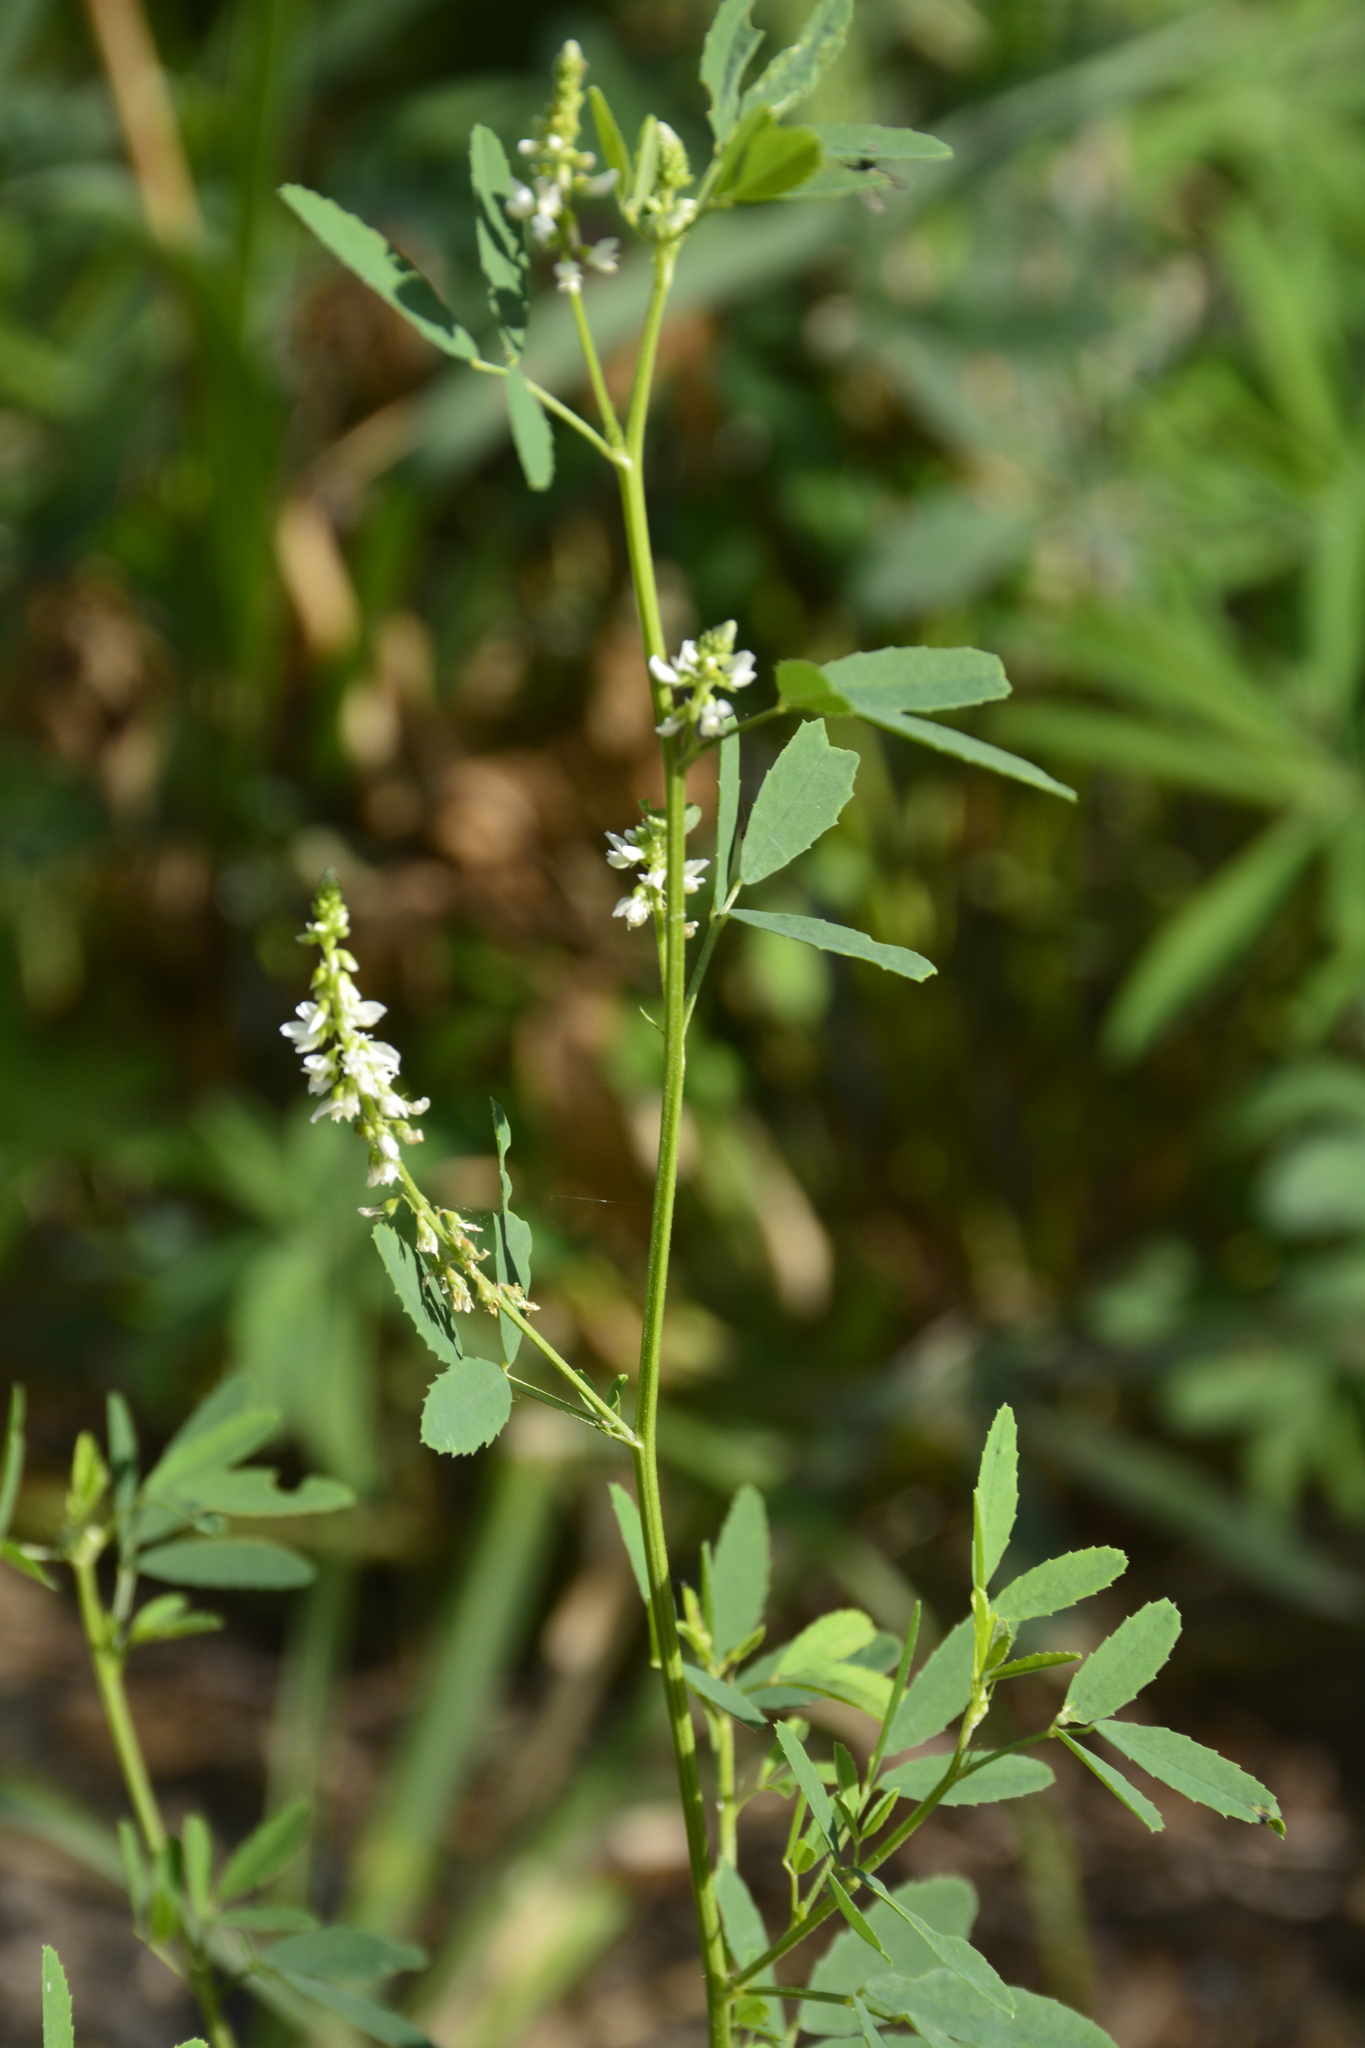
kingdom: Plantae
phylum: Tracheophyta
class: Magnoliopsida
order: Fabales
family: Fabaceae
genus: Melilotus
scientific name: Melilotus albus
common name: White melilot
